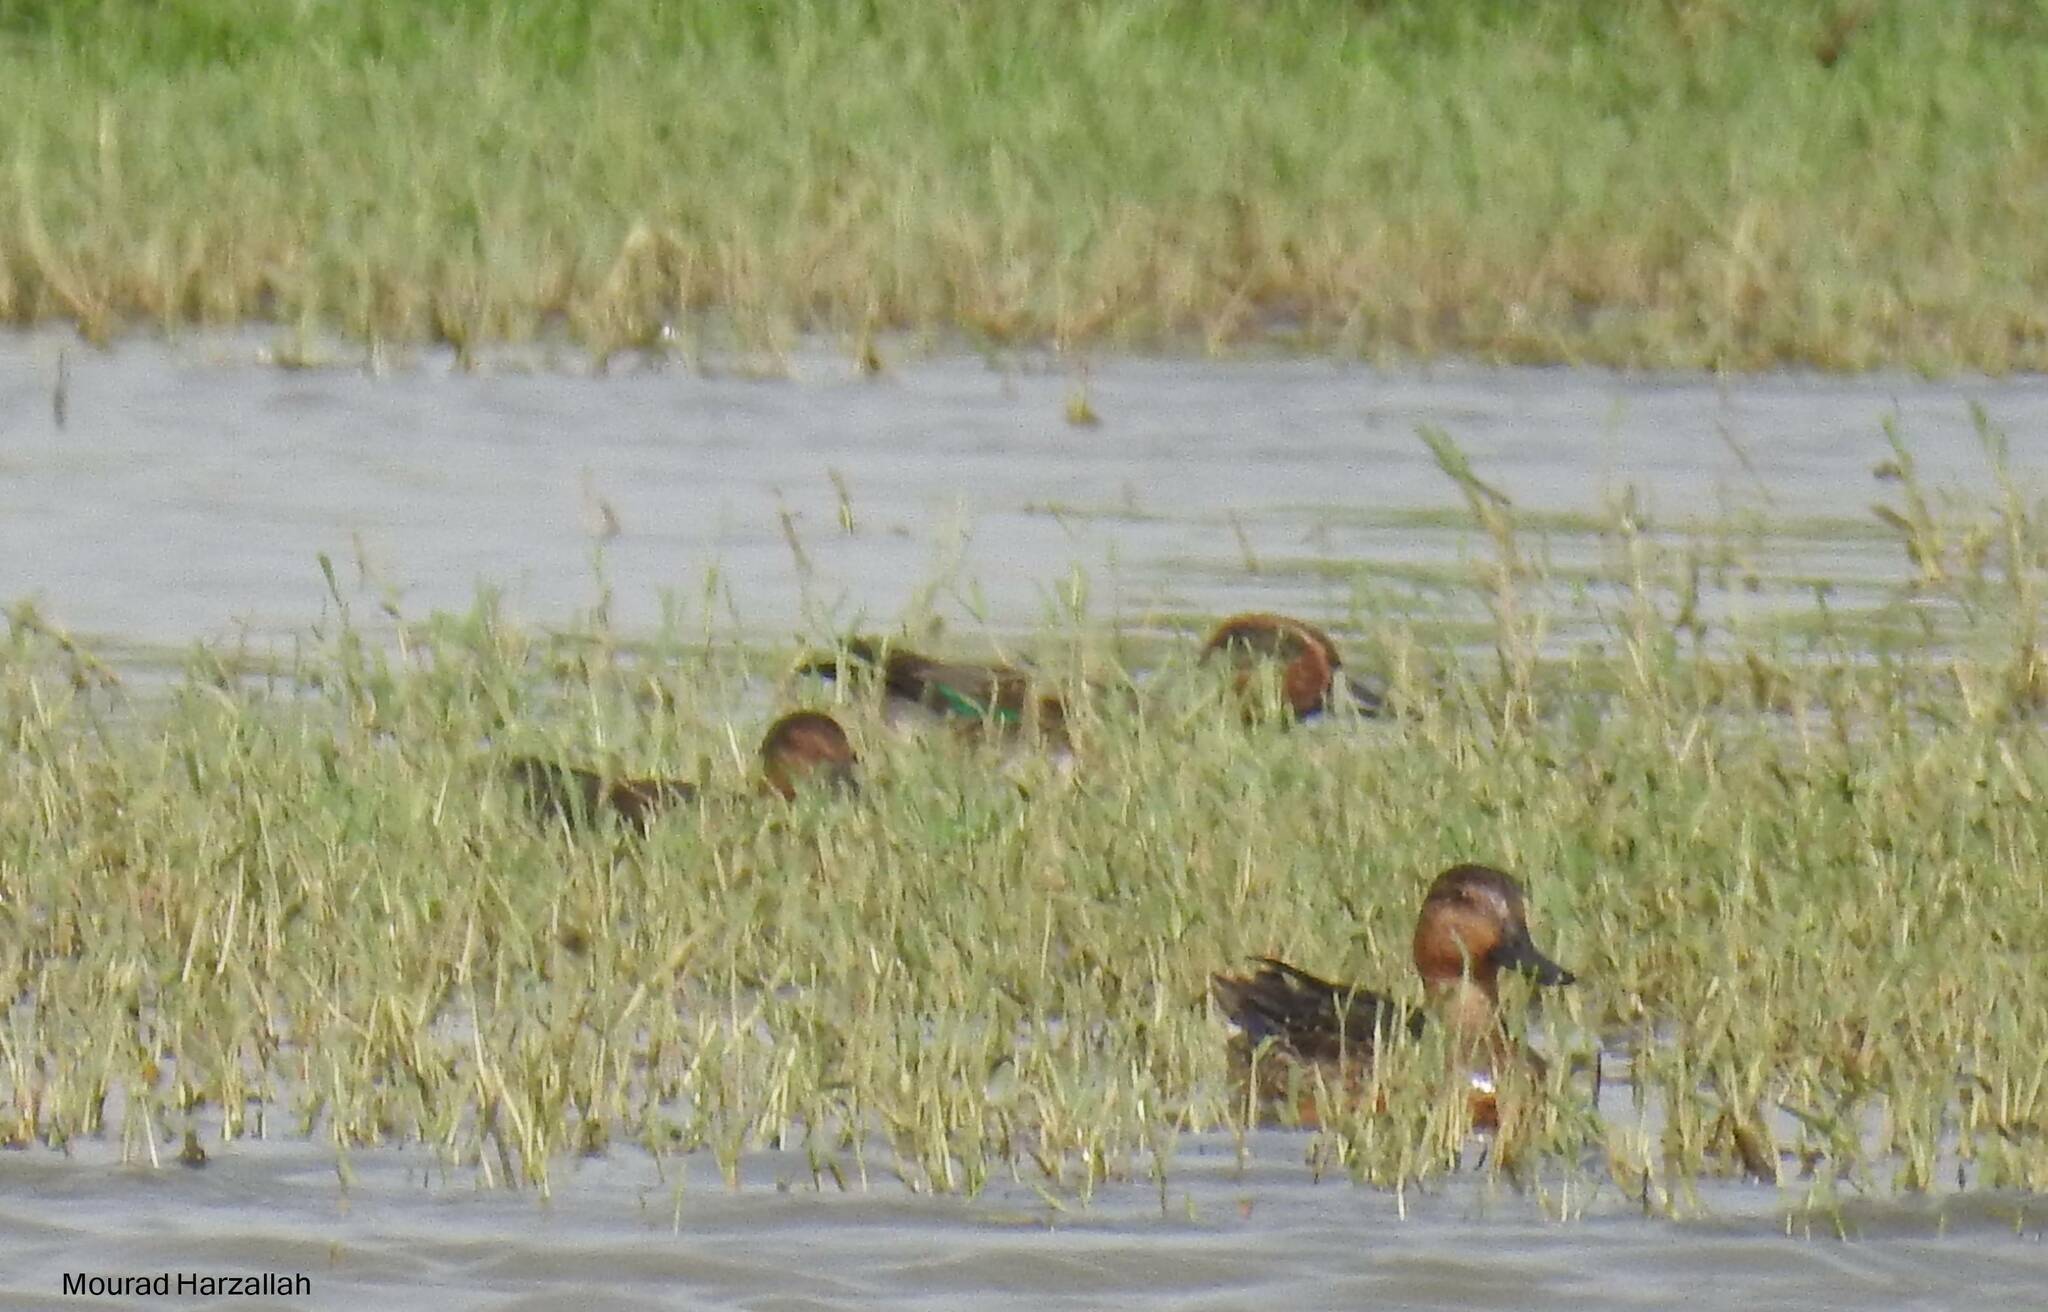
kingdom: Animalia
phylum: Chordata
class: Aves
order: Anseriformes
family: Anatidae
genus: Anas
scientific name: Anas crecca
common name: Eurasian teal
